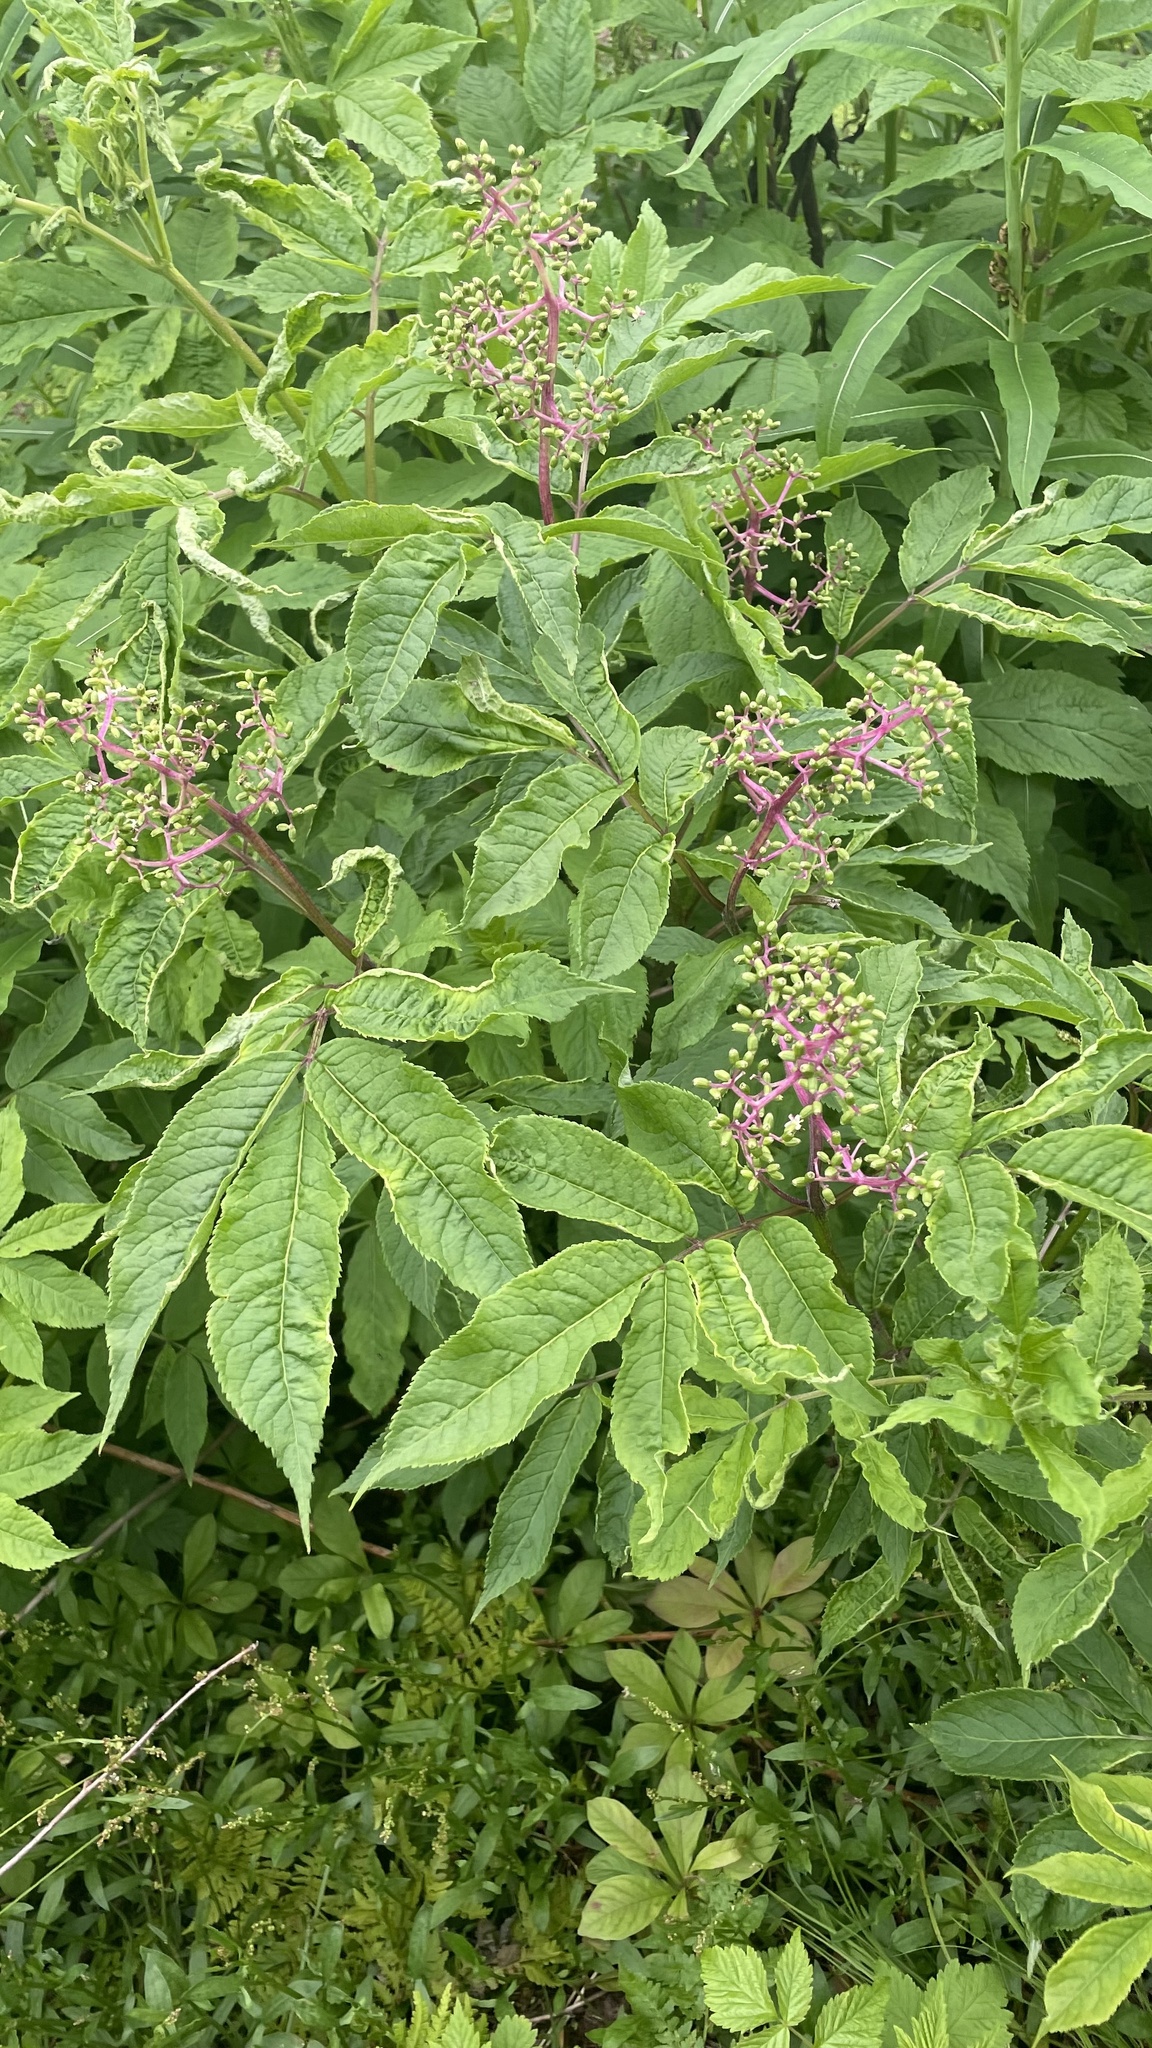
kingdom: Plantae
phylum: Tracheophyta
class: Magnoliopsida
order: Dipsacales
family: Viburnaceae
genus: Sambucus
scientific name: Sambucus racemosa
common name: Red-berried elder
